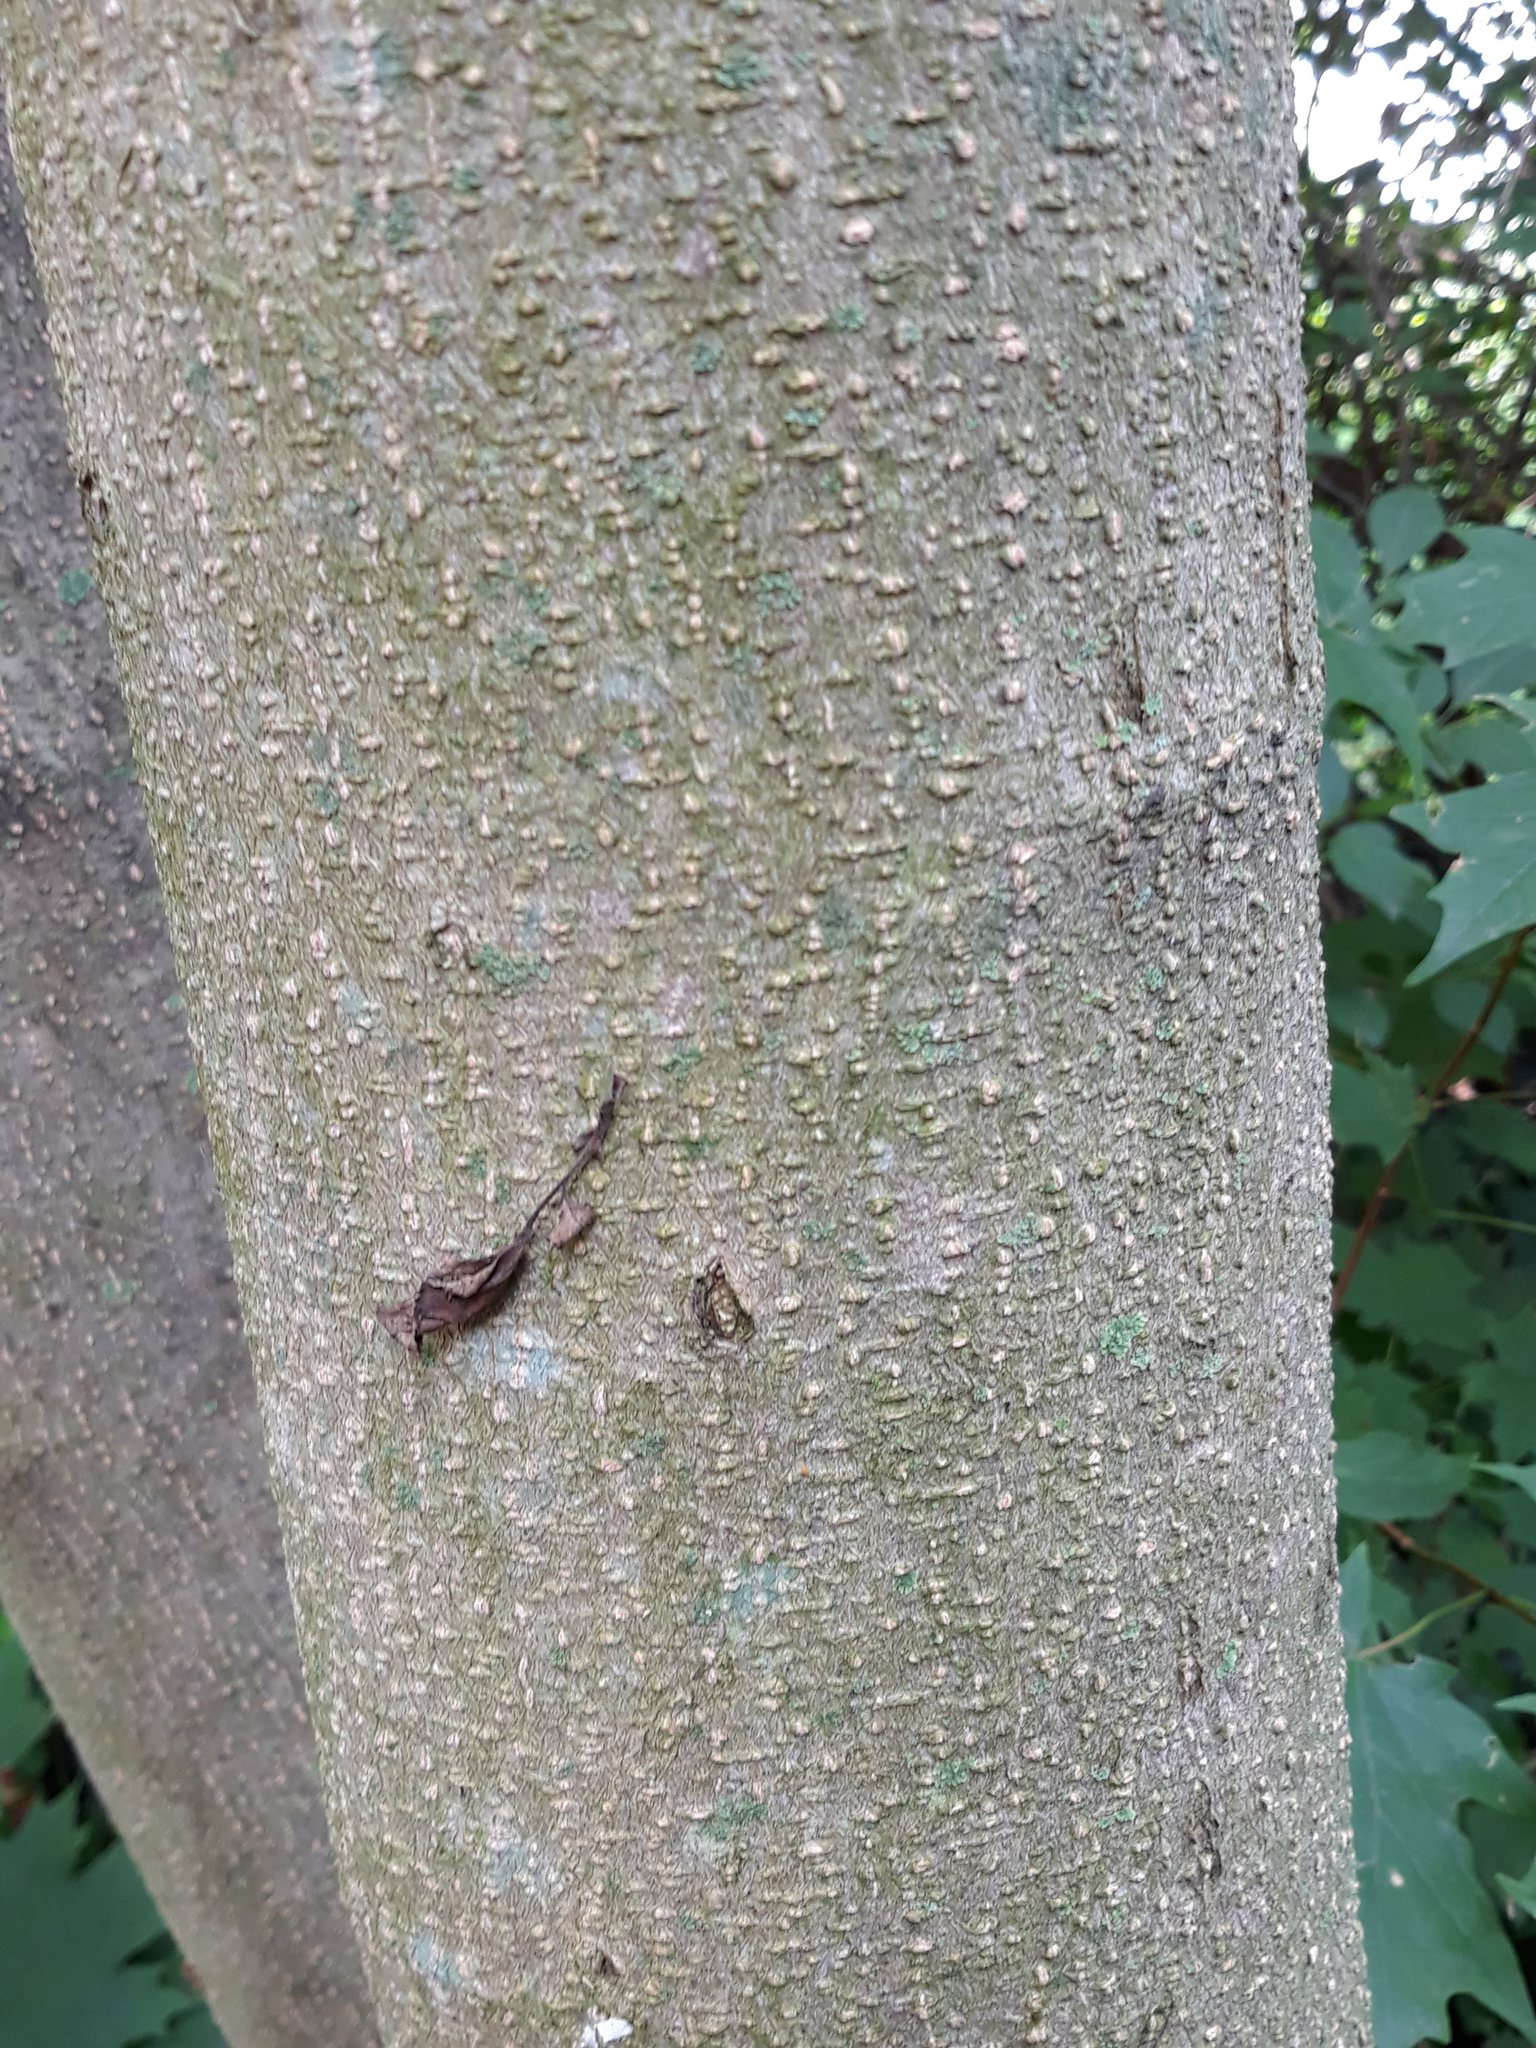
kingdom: Plantae
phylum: Tracheophyta
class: Magnoliopsida
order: Fabales
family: Fabaceae
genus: Albizia
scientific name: Albizia julibrissin
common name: Silktree
